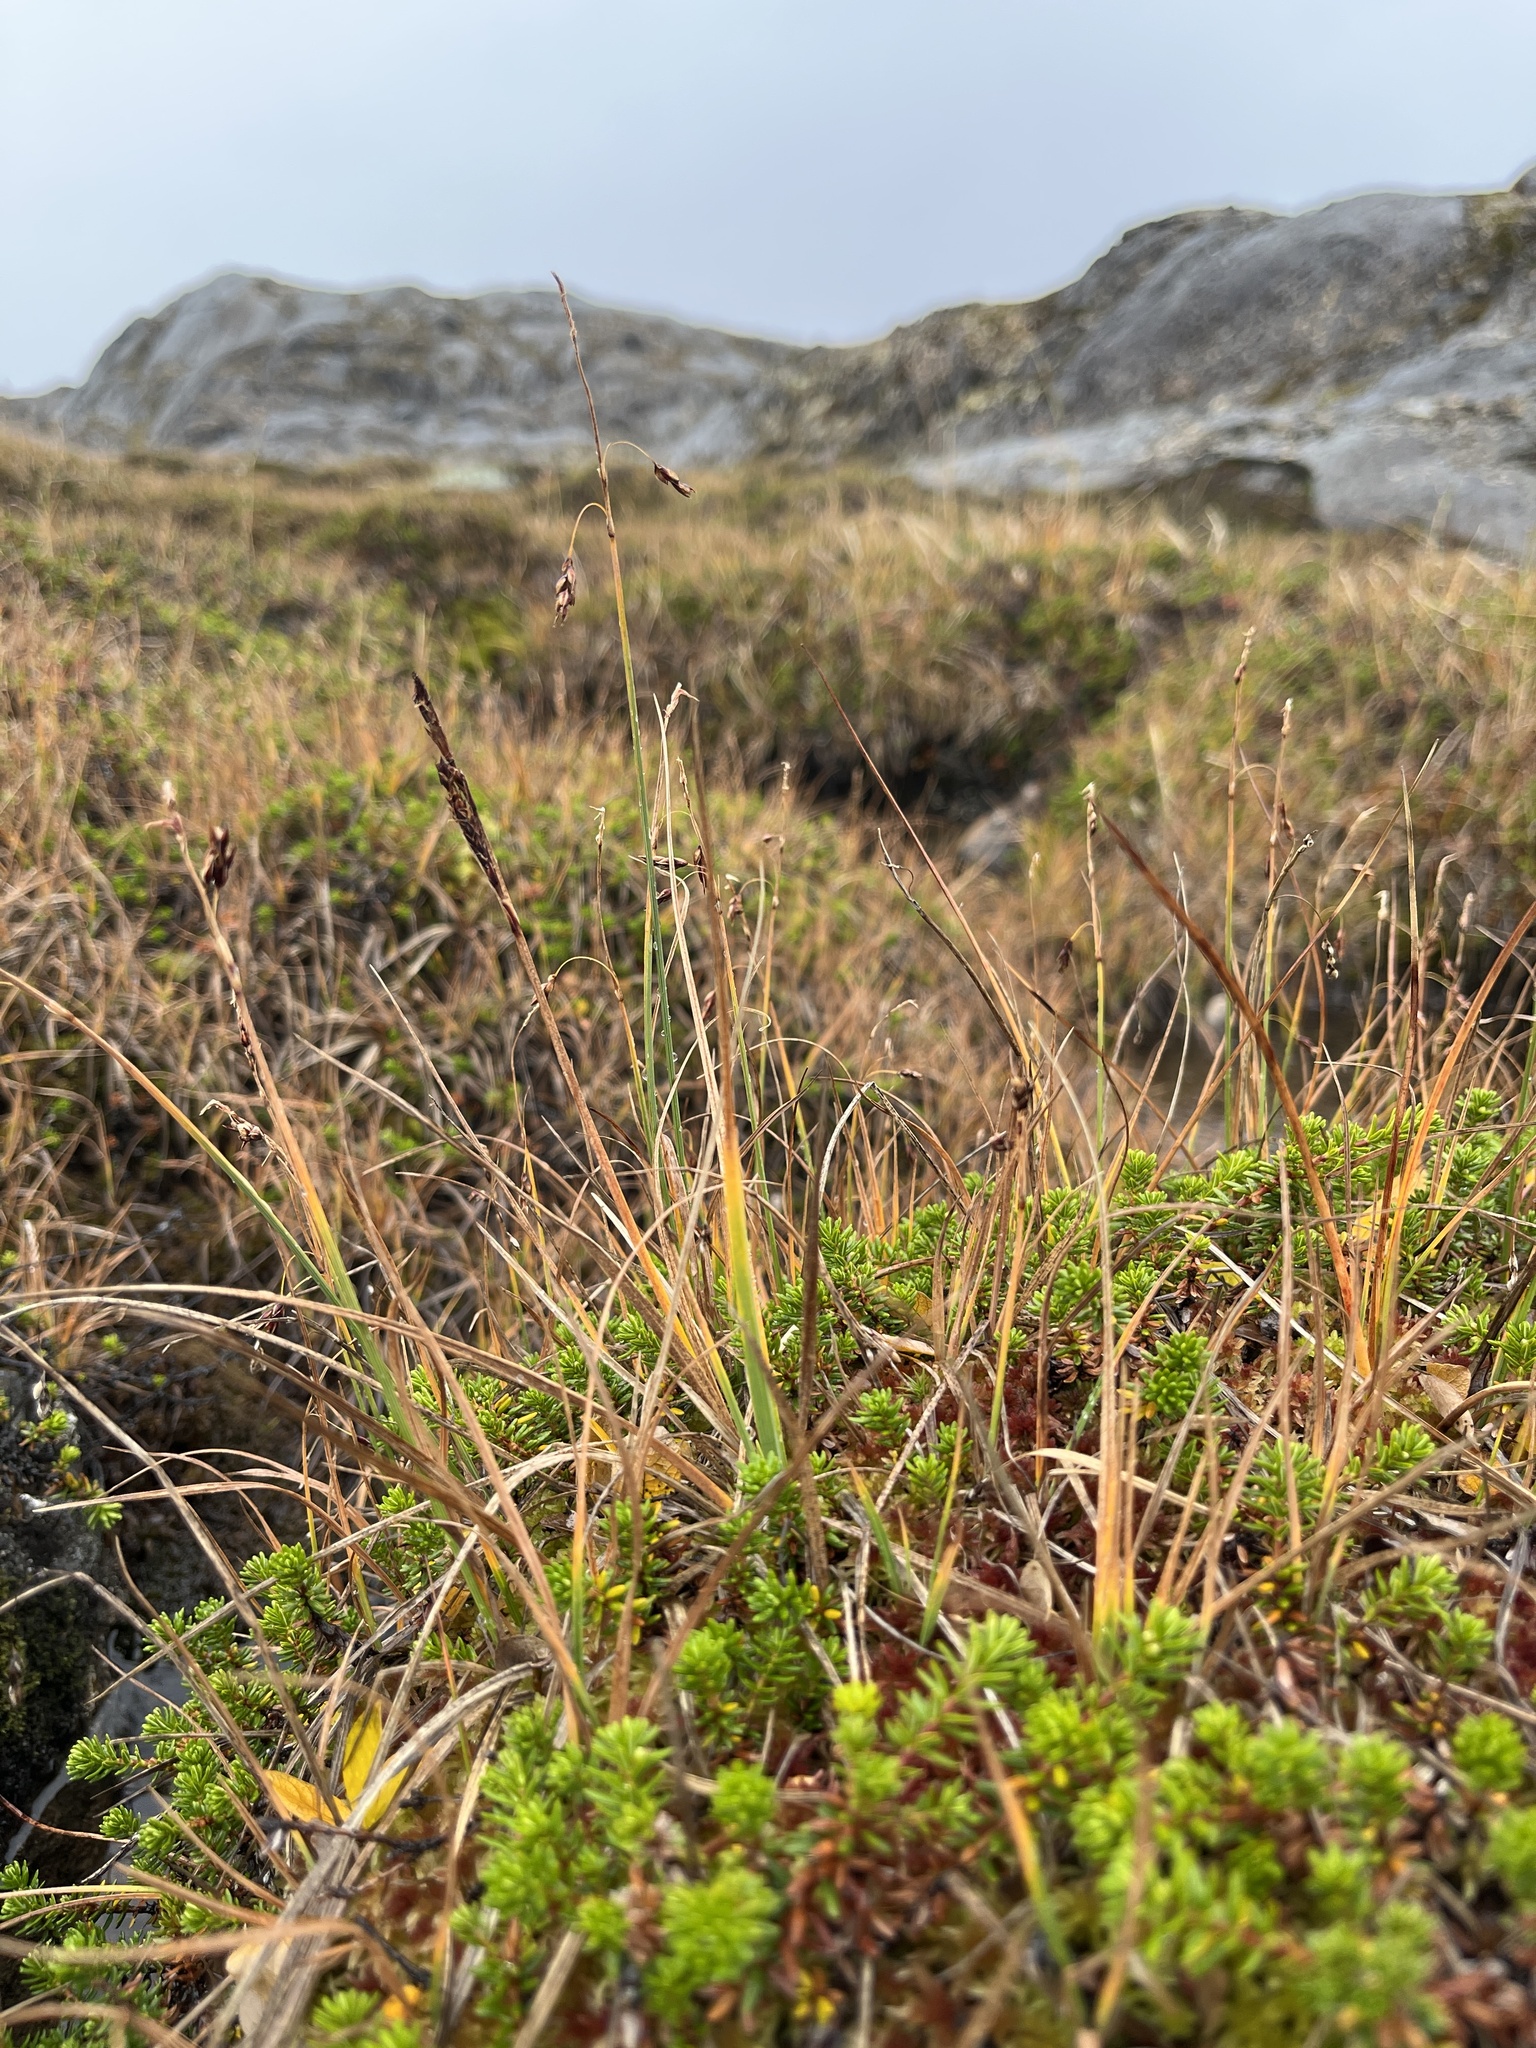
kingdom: Plantae
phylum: Tracheophyta
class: Liliopsida
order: Poales
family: Cyperaceae
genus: Carex
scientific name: Carex rariflora
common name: Loose-flowered alpine sedge
